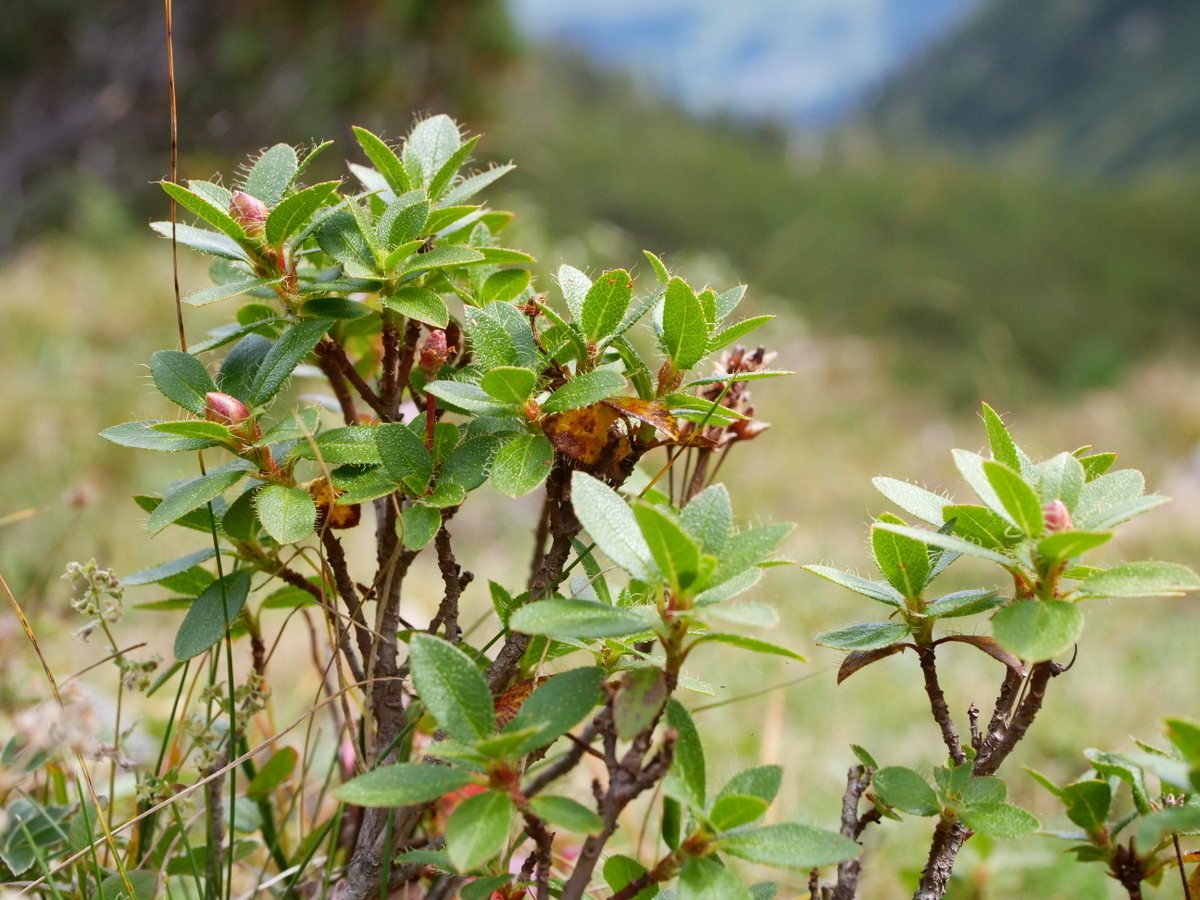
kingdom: Plantae
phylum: Tracheophyta
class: Magnoliopsida
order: Ericales
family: Ericaceae
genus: Rhododendron
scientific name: Rhododendron hirsutum
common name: Hairy alpenrose
